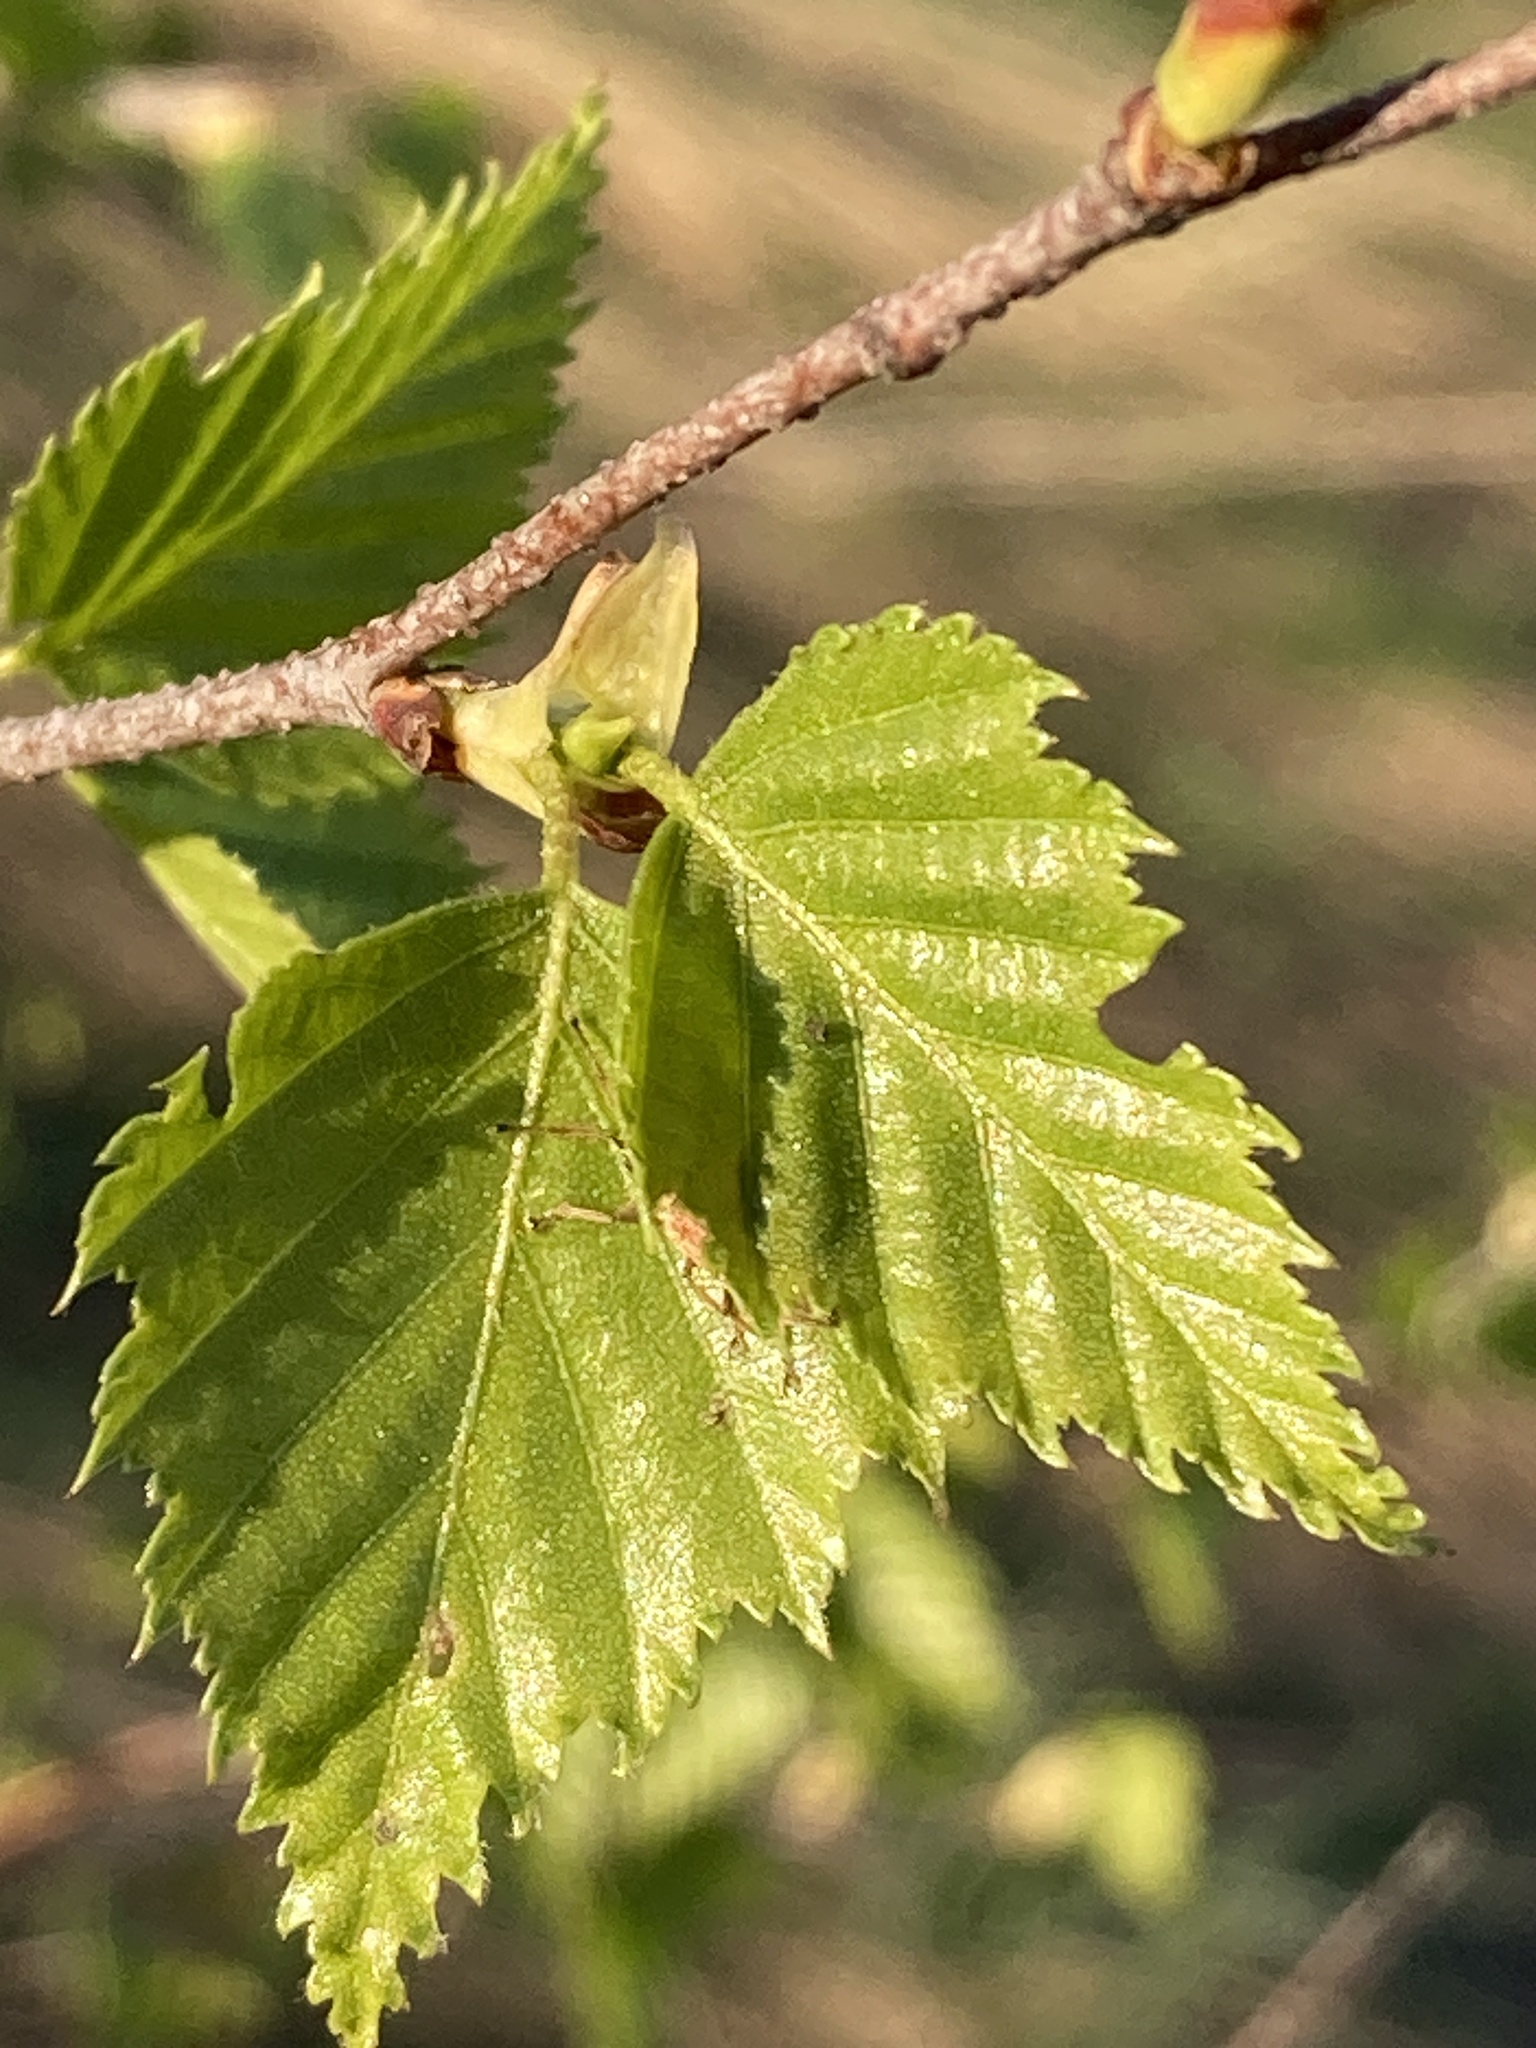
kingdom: Plantae
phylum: Tracheophyta
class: Magnoliopsida
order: Fagales
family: Betulaceae
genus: Betula
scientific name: Betula pendula
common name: Silver birch
